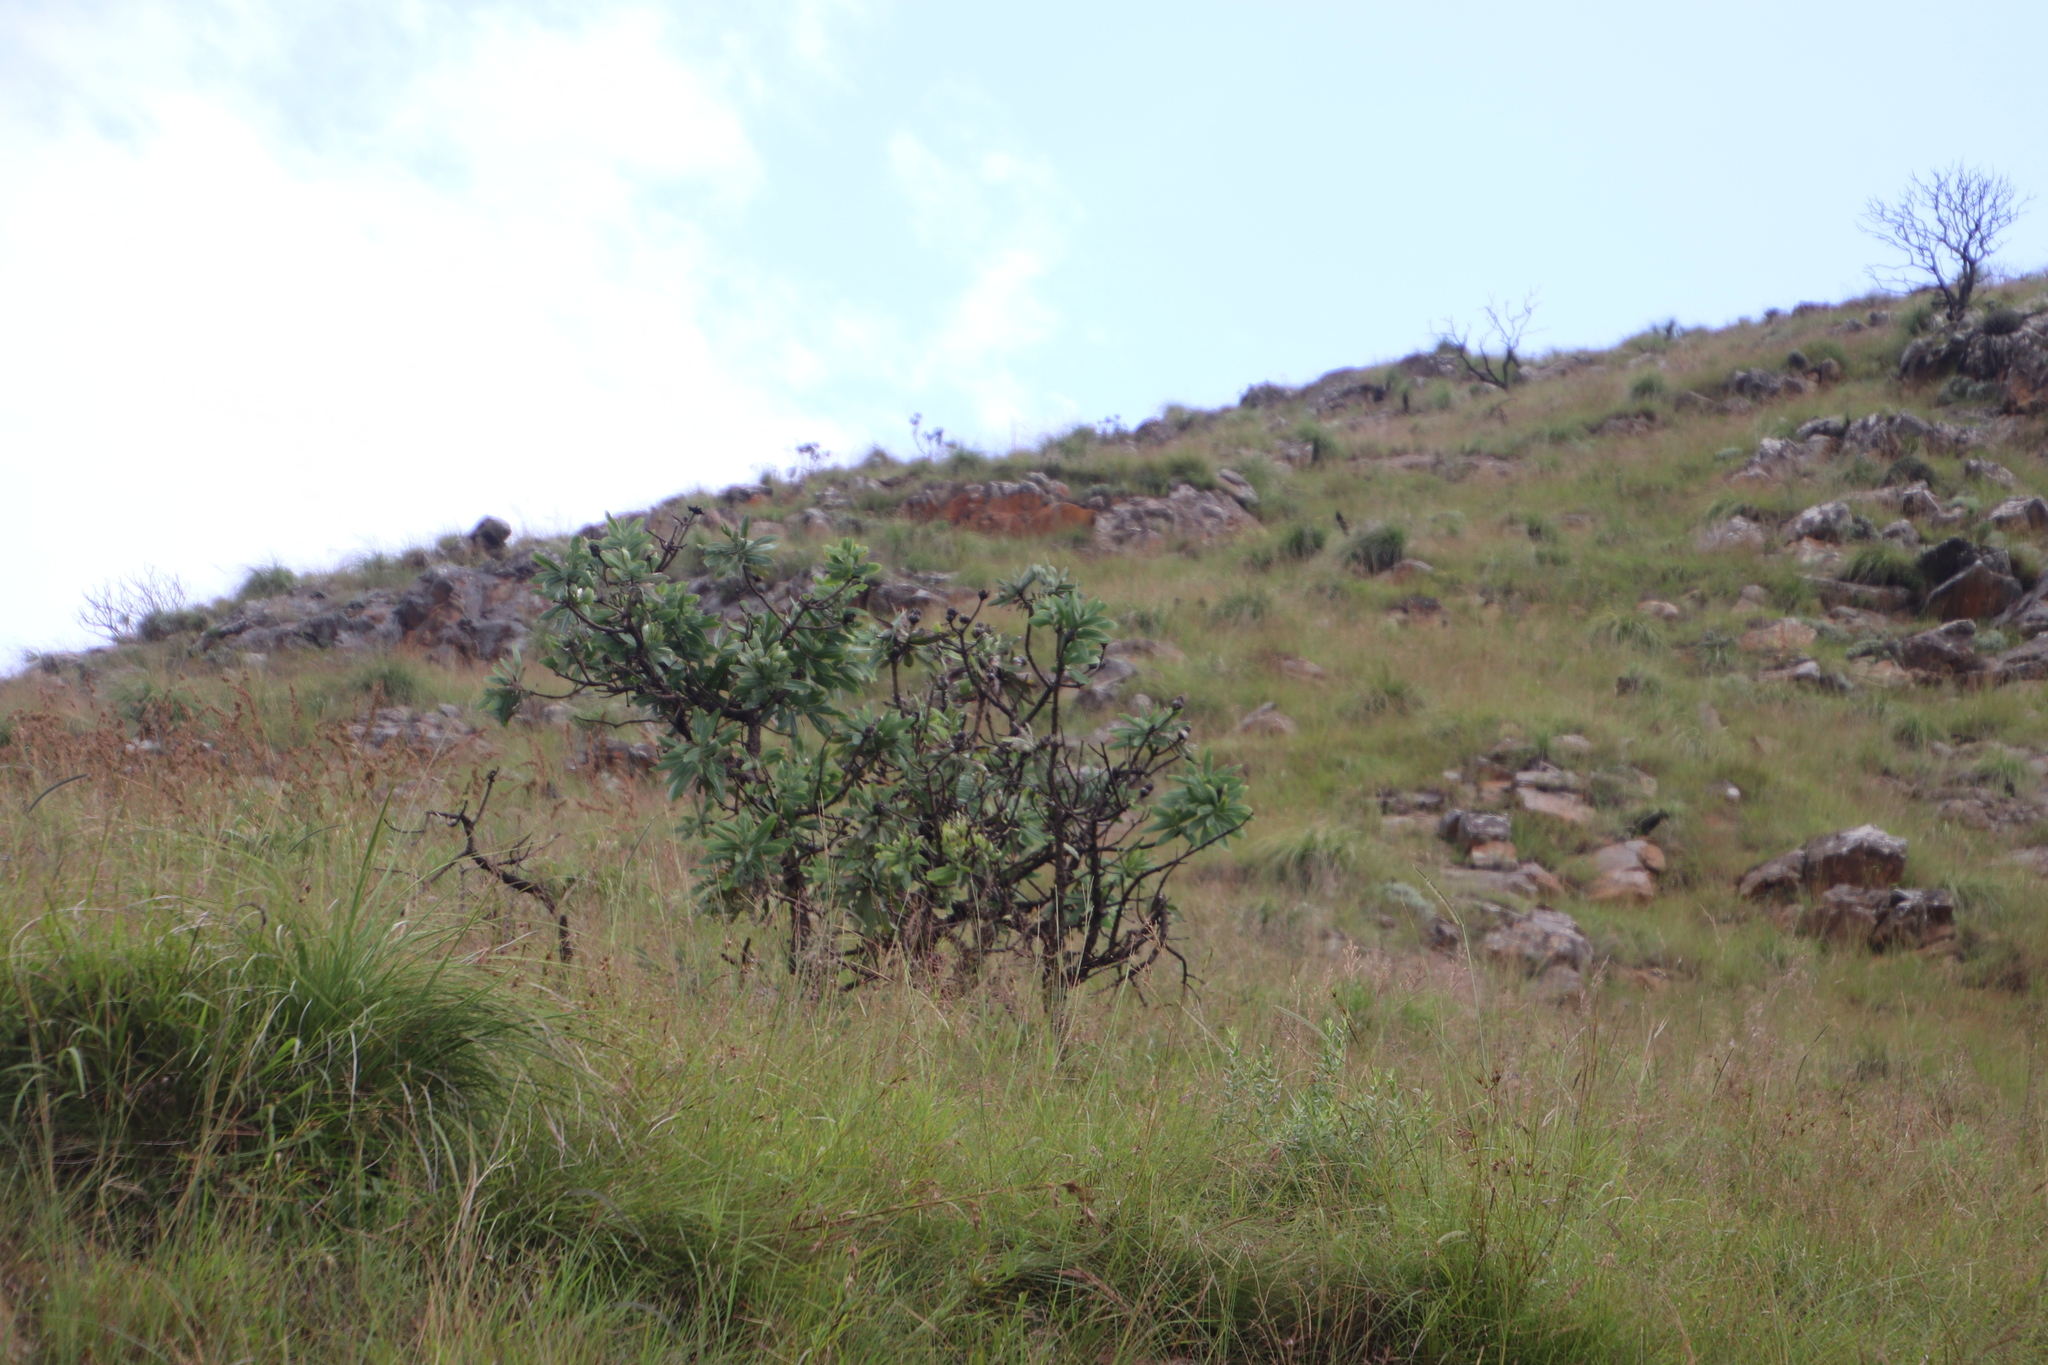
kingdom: Plantae
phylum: Tracheophyta
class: Magnoliopsida
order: Proteales
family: Proteaceae
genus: Protea
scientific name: Protea gaguedi
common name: African protea
